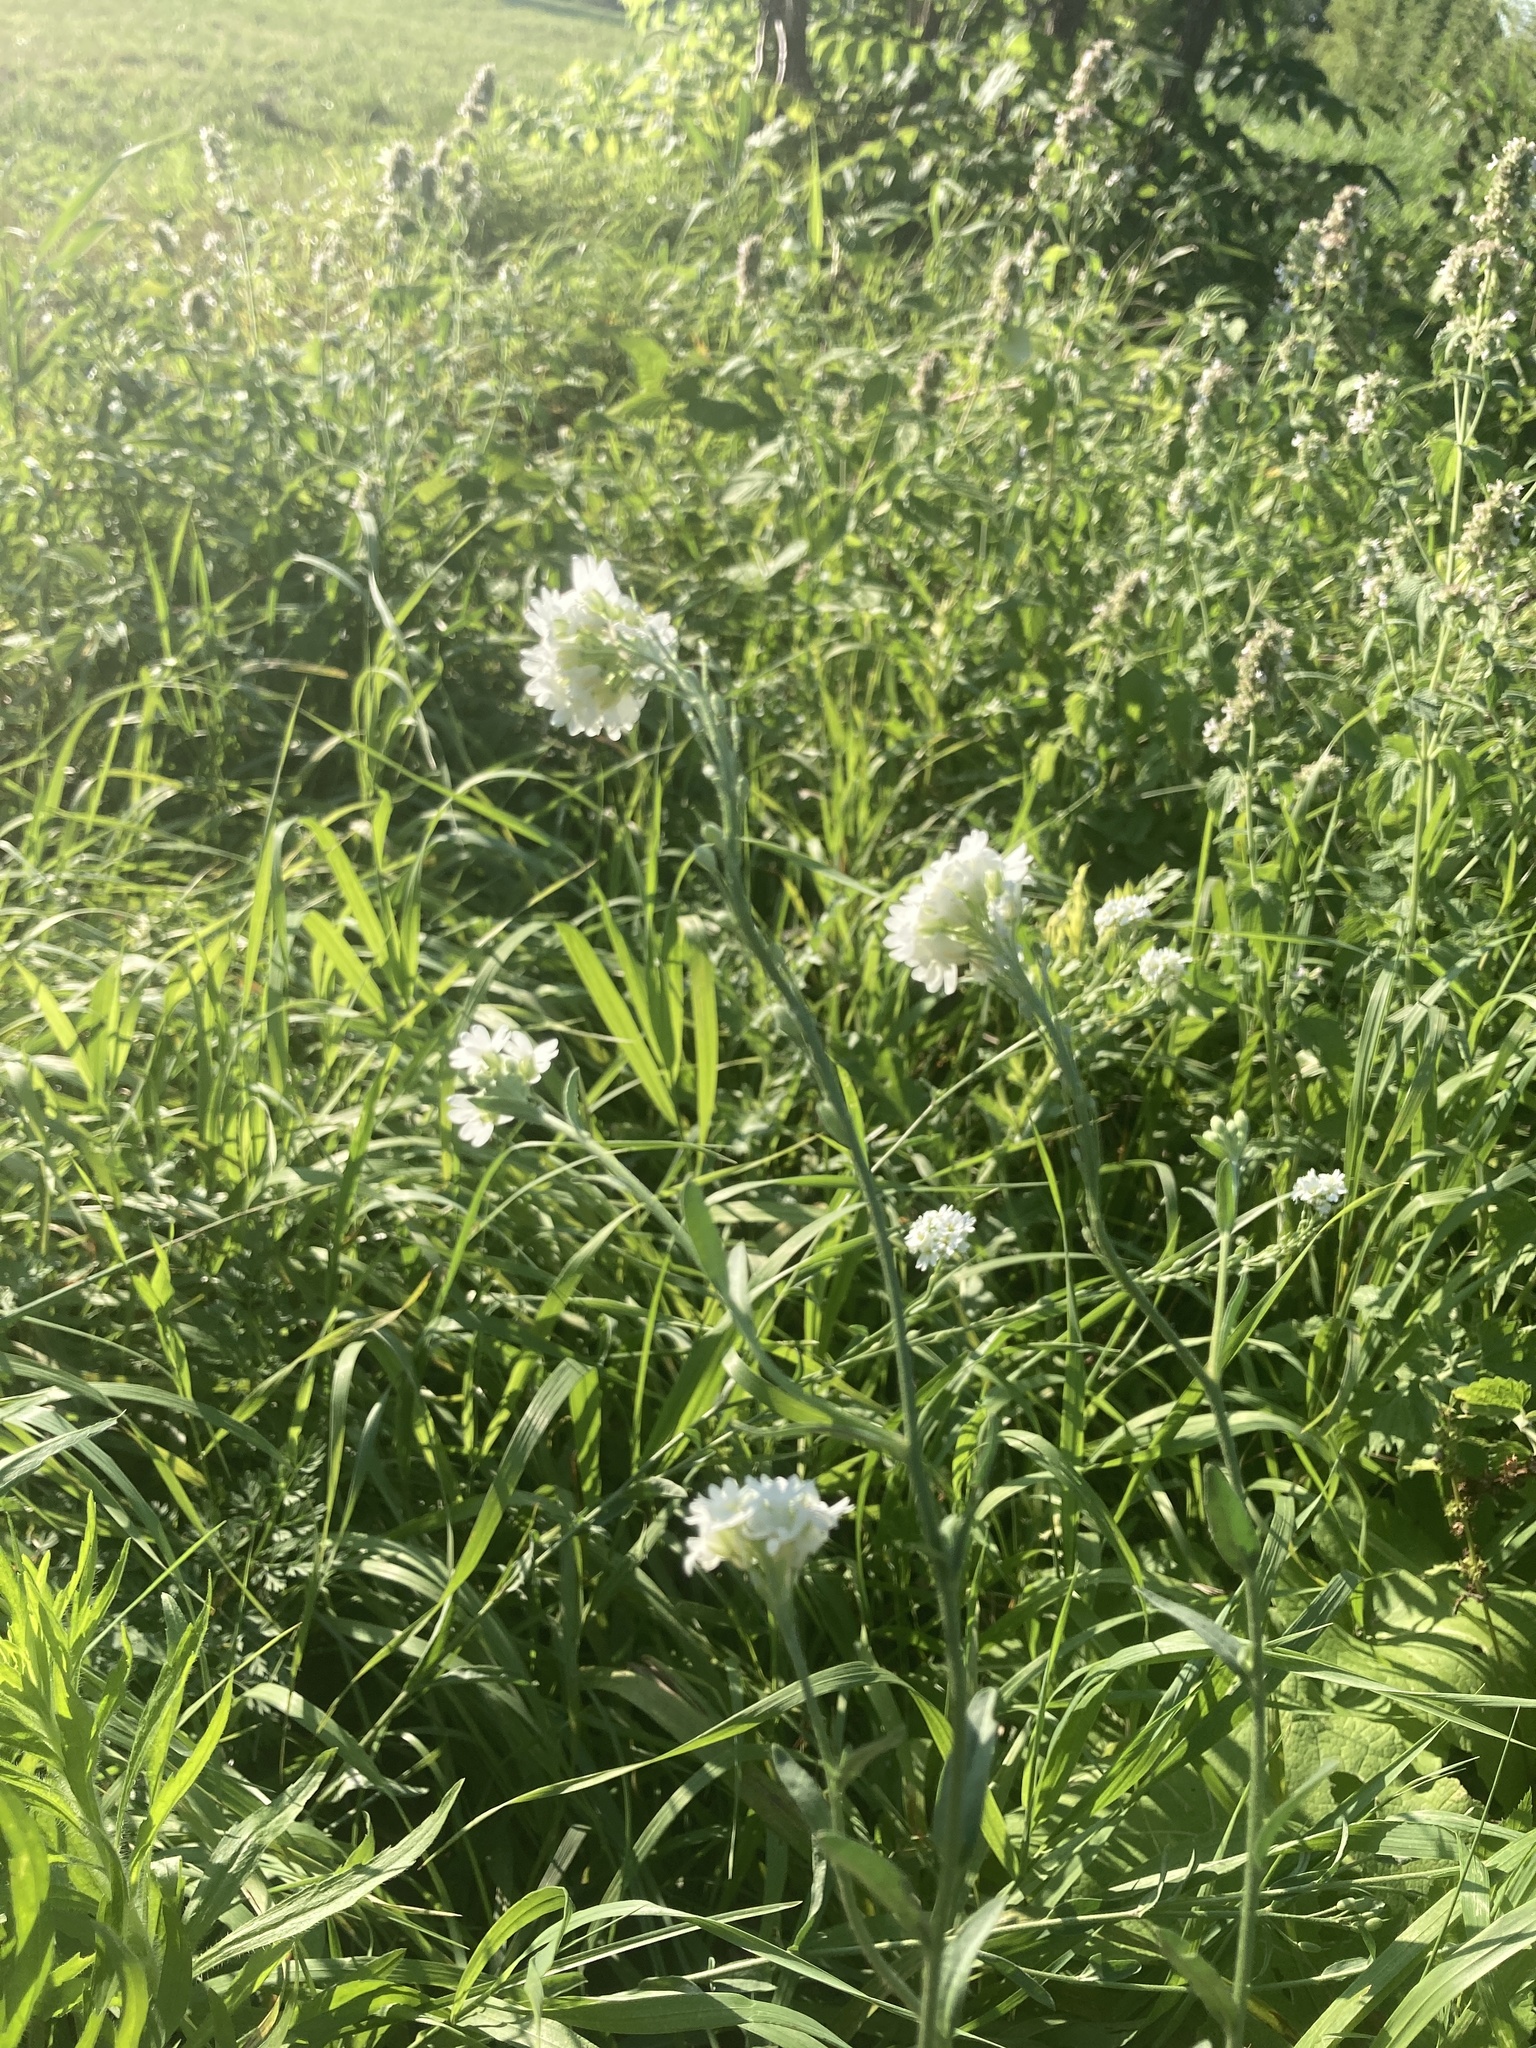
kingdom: Plantae
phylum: Tracheophyta
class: Magnoliopsida
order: Brassicales
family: Brassicaceae
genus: Berteroa
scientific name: Berteroa incana
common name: Hoary alison
